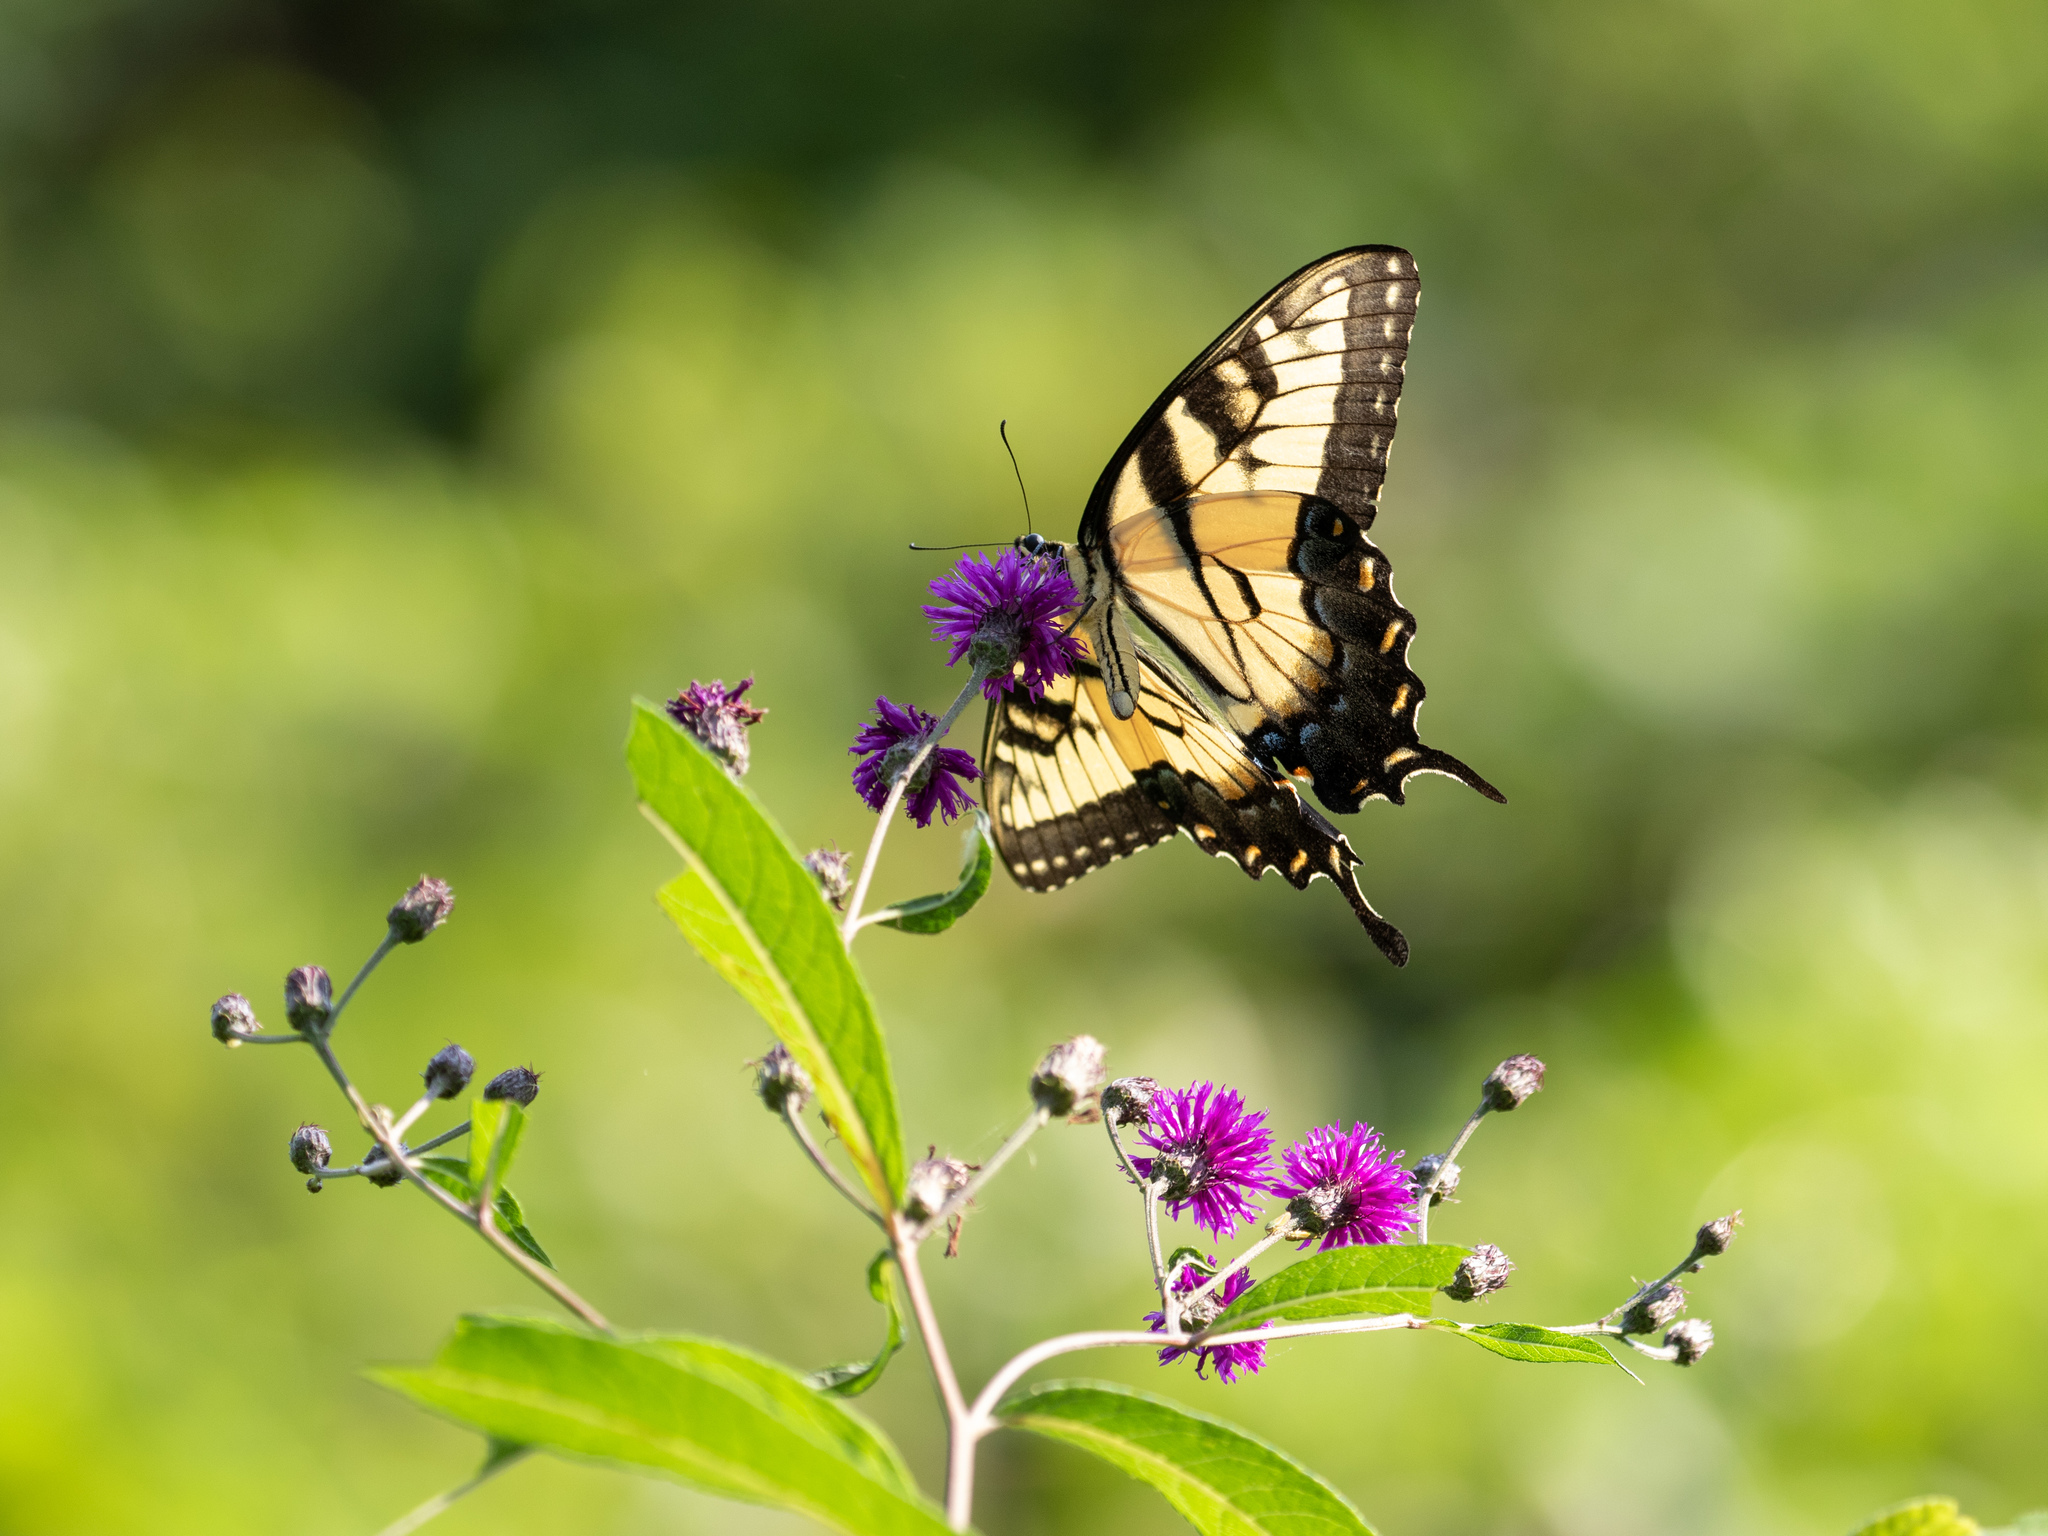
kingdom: Animalia
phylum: Arthropoda
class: Insecta
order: Lepidoptera
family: Papilionidae
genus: Papilio
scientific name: Papilio glaucus
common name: Tiger swallowtail
